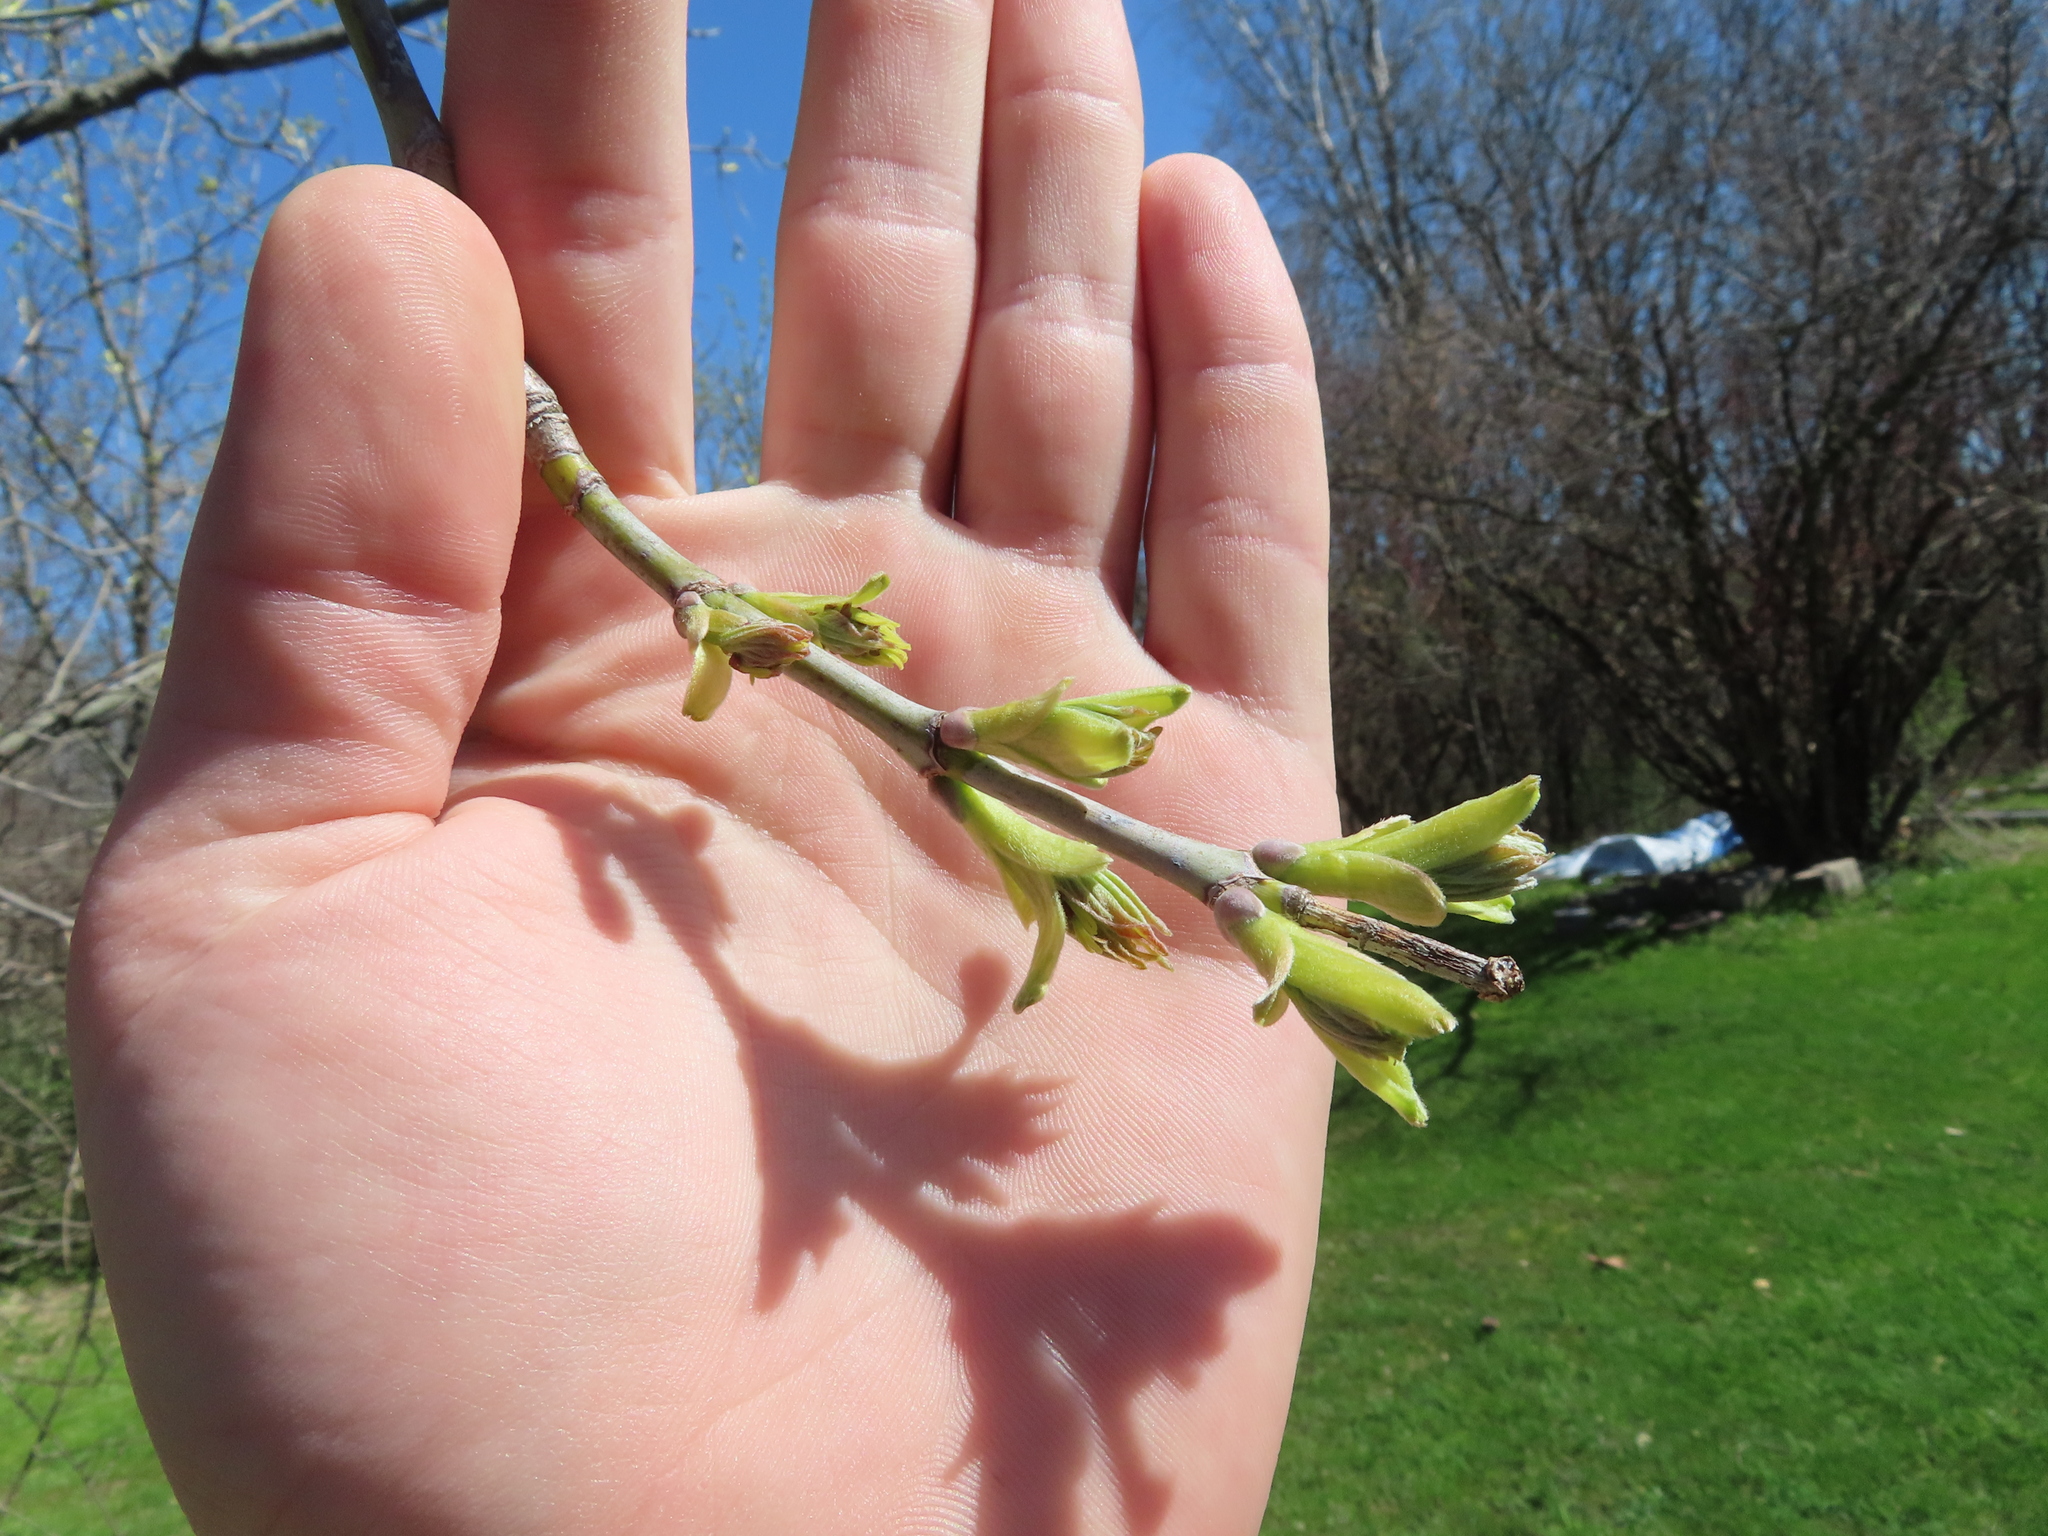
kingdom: Plantae
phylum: Tracheophyta
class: Magnoliopsida
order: Sapindales
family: Sapindaceae
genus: Acer
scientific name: Acer negundo
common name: Ashleaf maple
